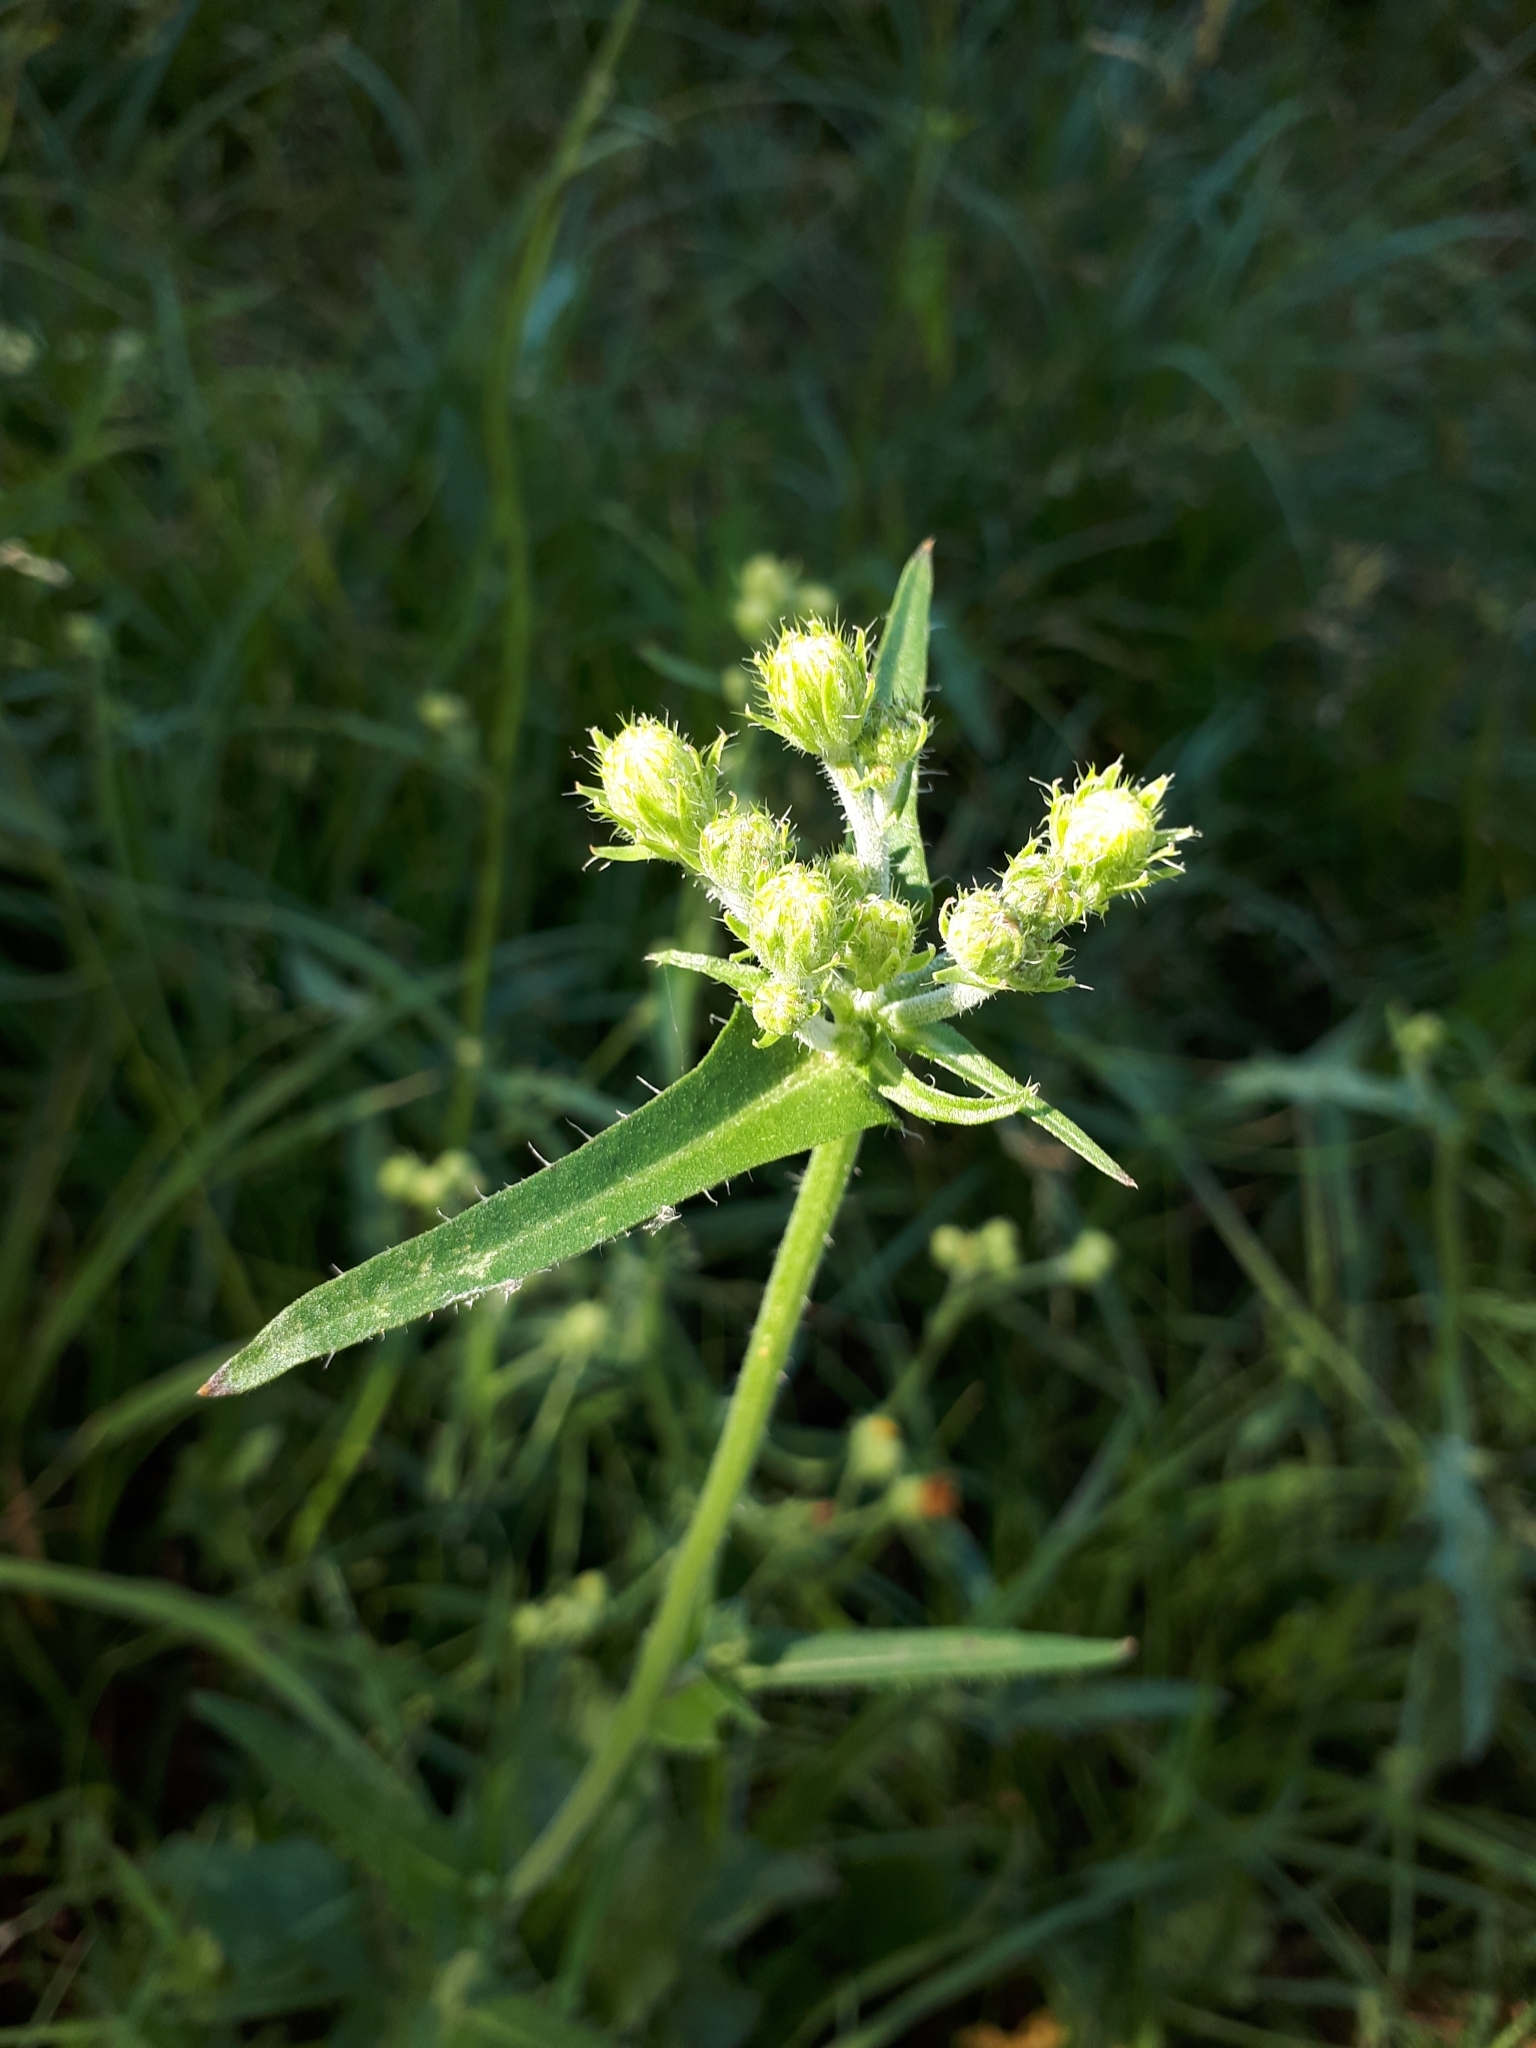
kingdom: Plantae
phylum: Tracheophyta
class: Magnoliopsida
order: Asterales
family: Asteraceae
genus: Picris
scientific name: Picris hieracioides
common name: Hawkweed oxtongue
